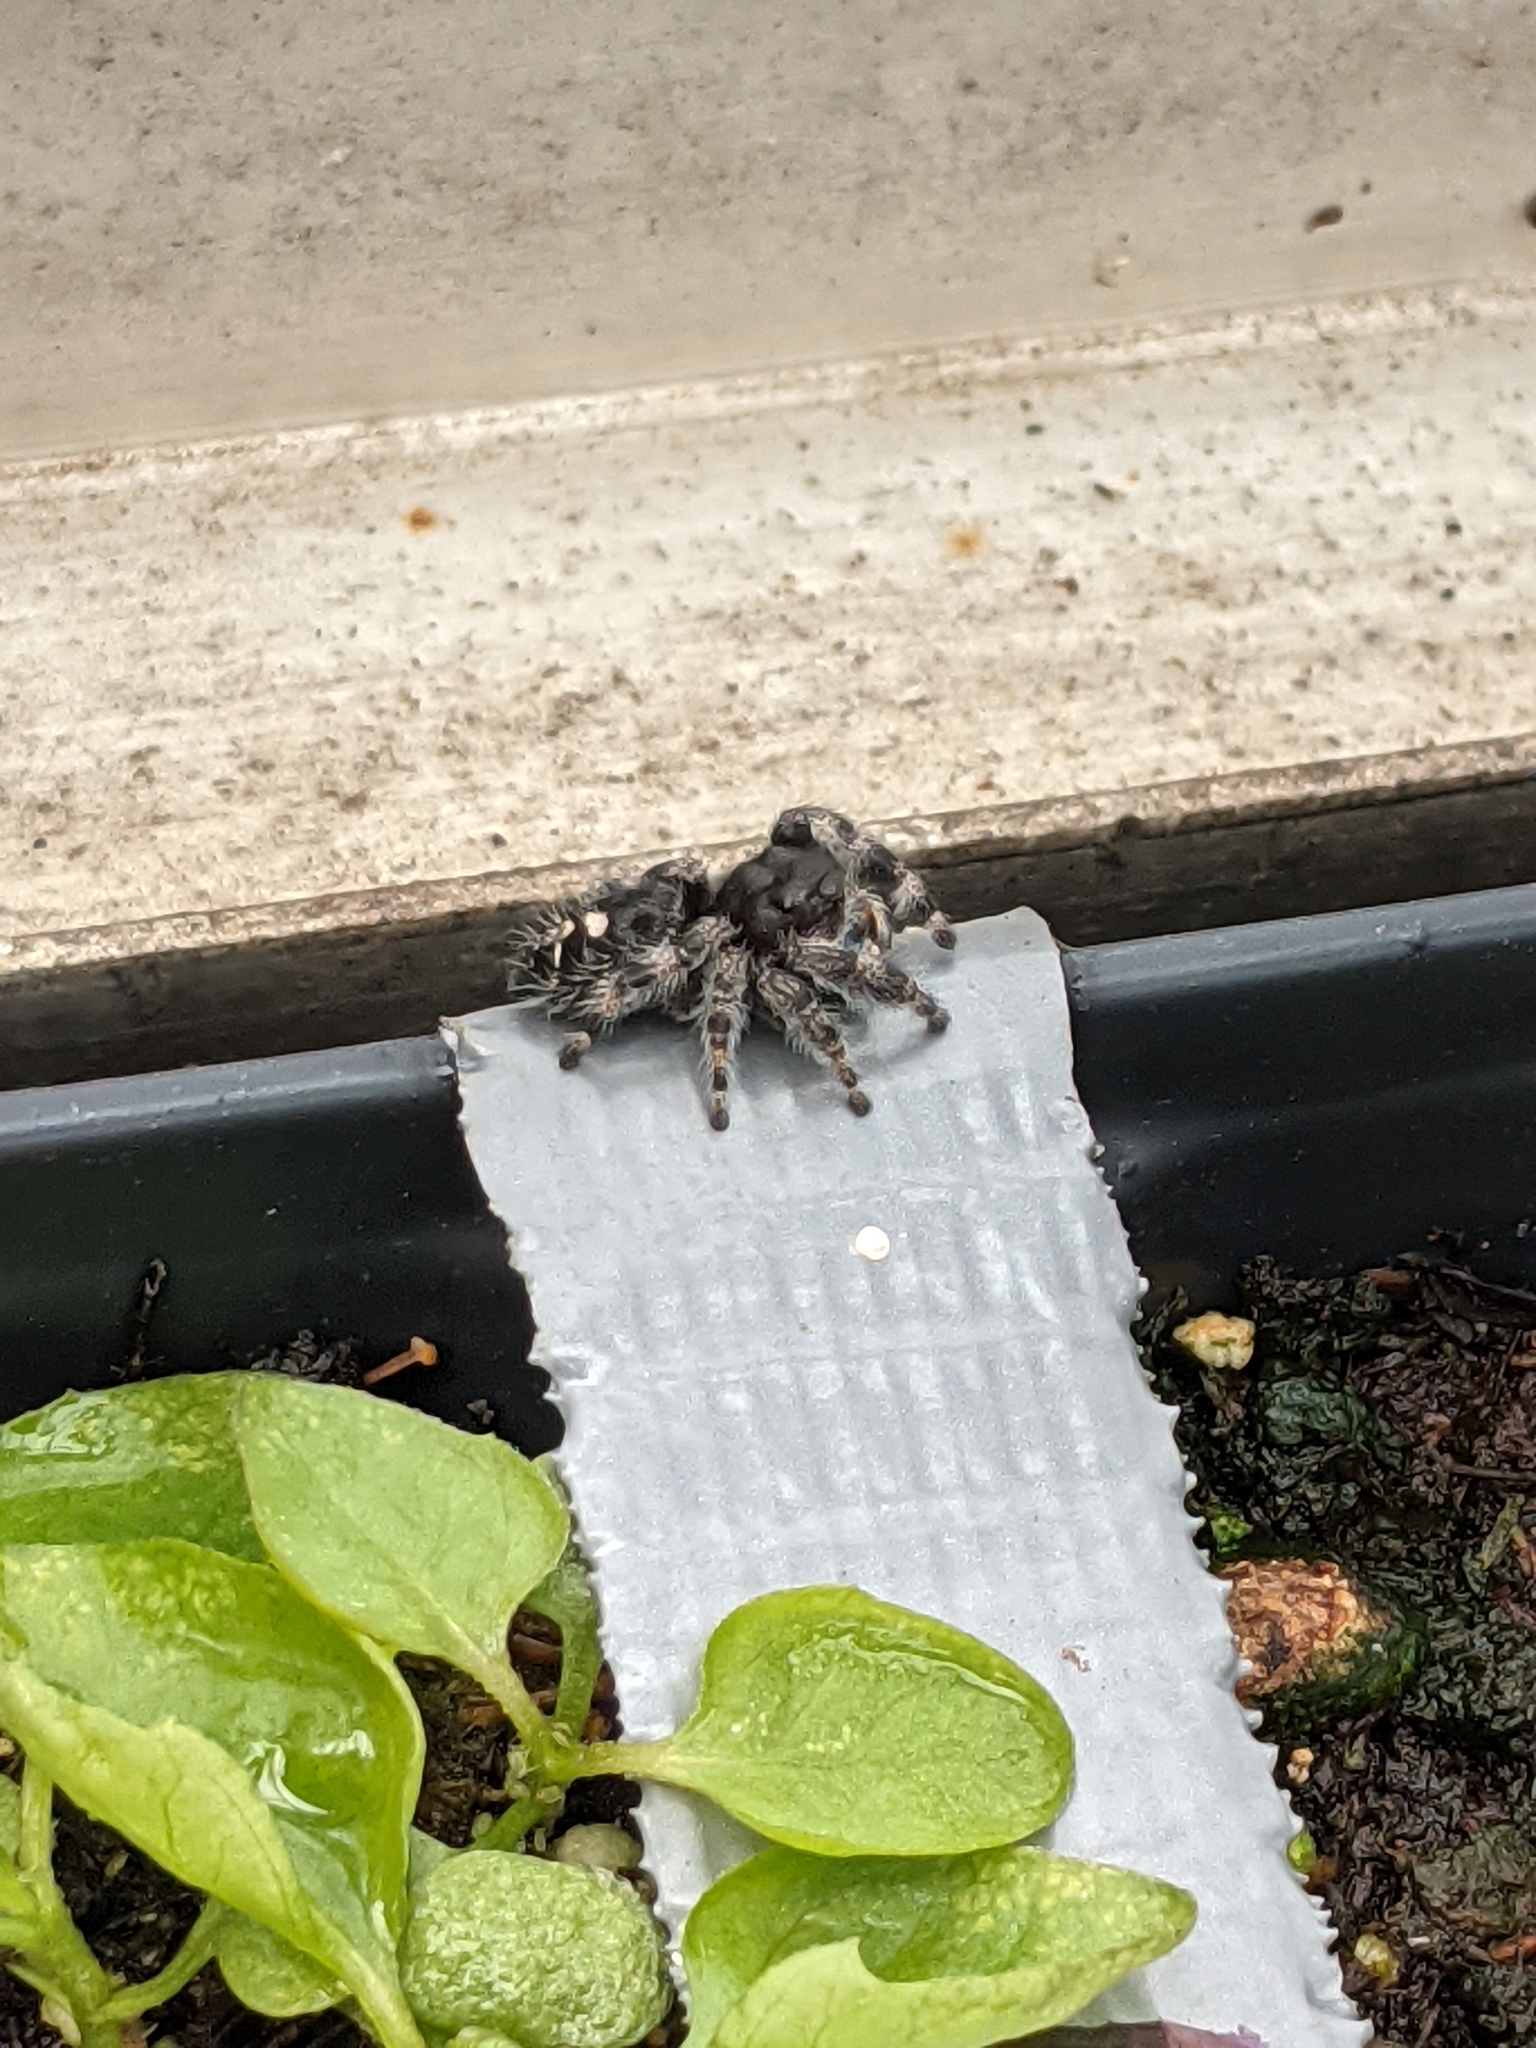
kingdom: Animalia
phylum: Arthropoda
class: Arachnida
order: Araneae
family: Salticidae
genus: Phidippus
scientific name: Phidippus audax
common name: Bold jumper
